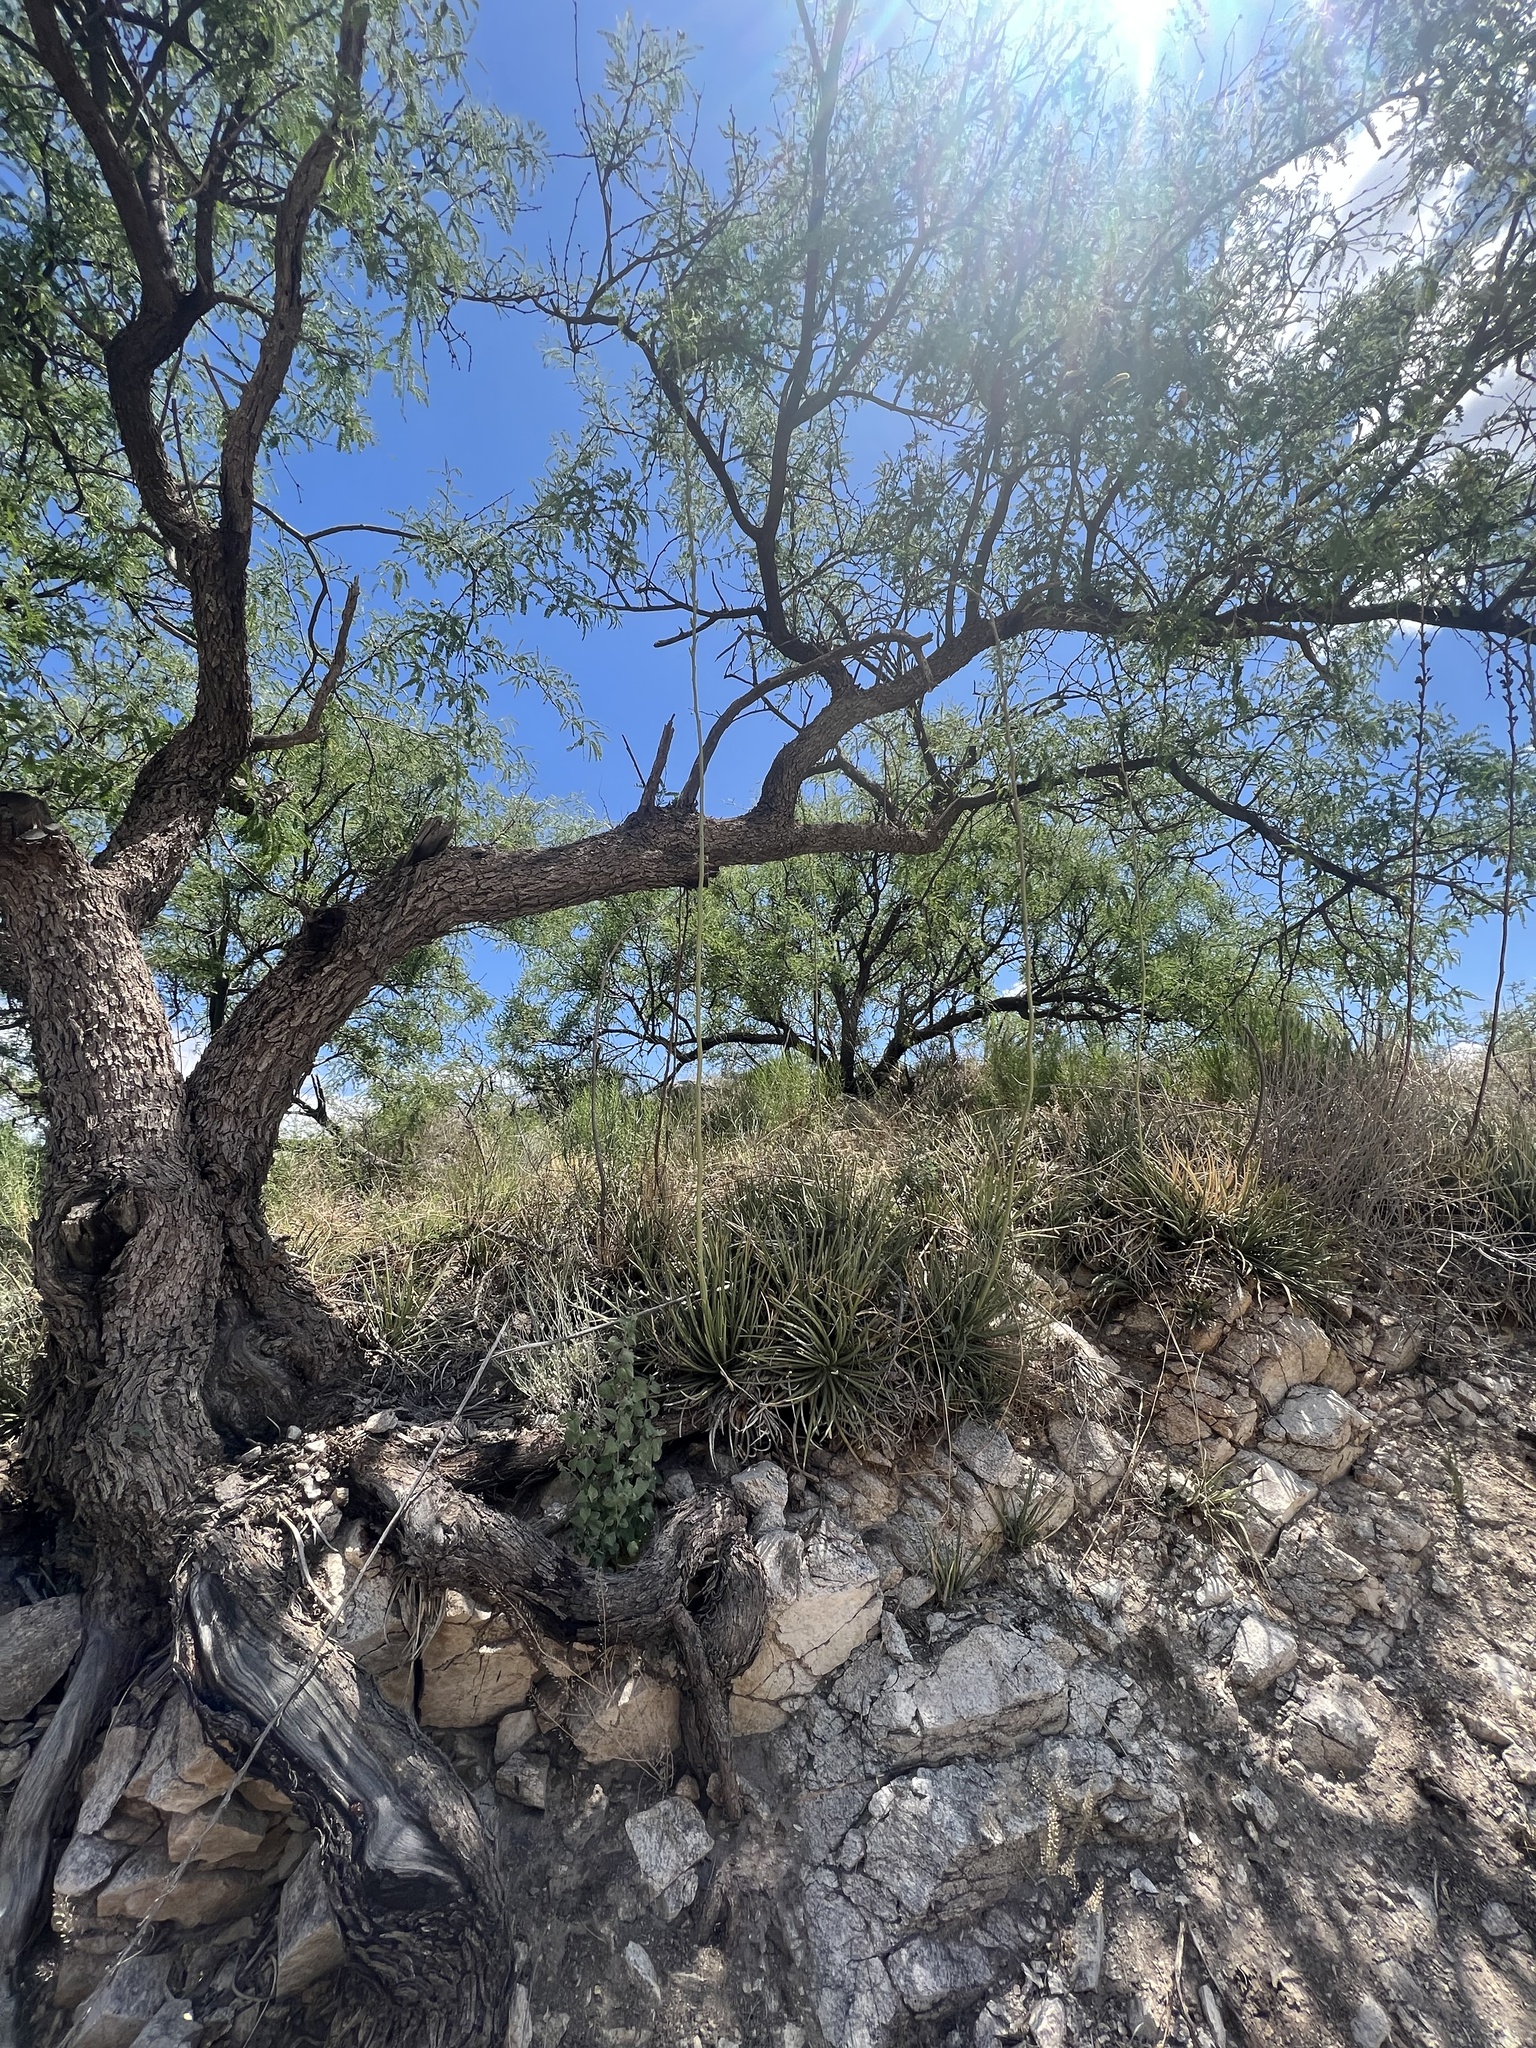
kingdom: Plantae
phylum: Tracheophyta
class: Liliopsida
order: Asparagales
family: Asparagaceae
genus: Agave
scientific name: Agave schottii
